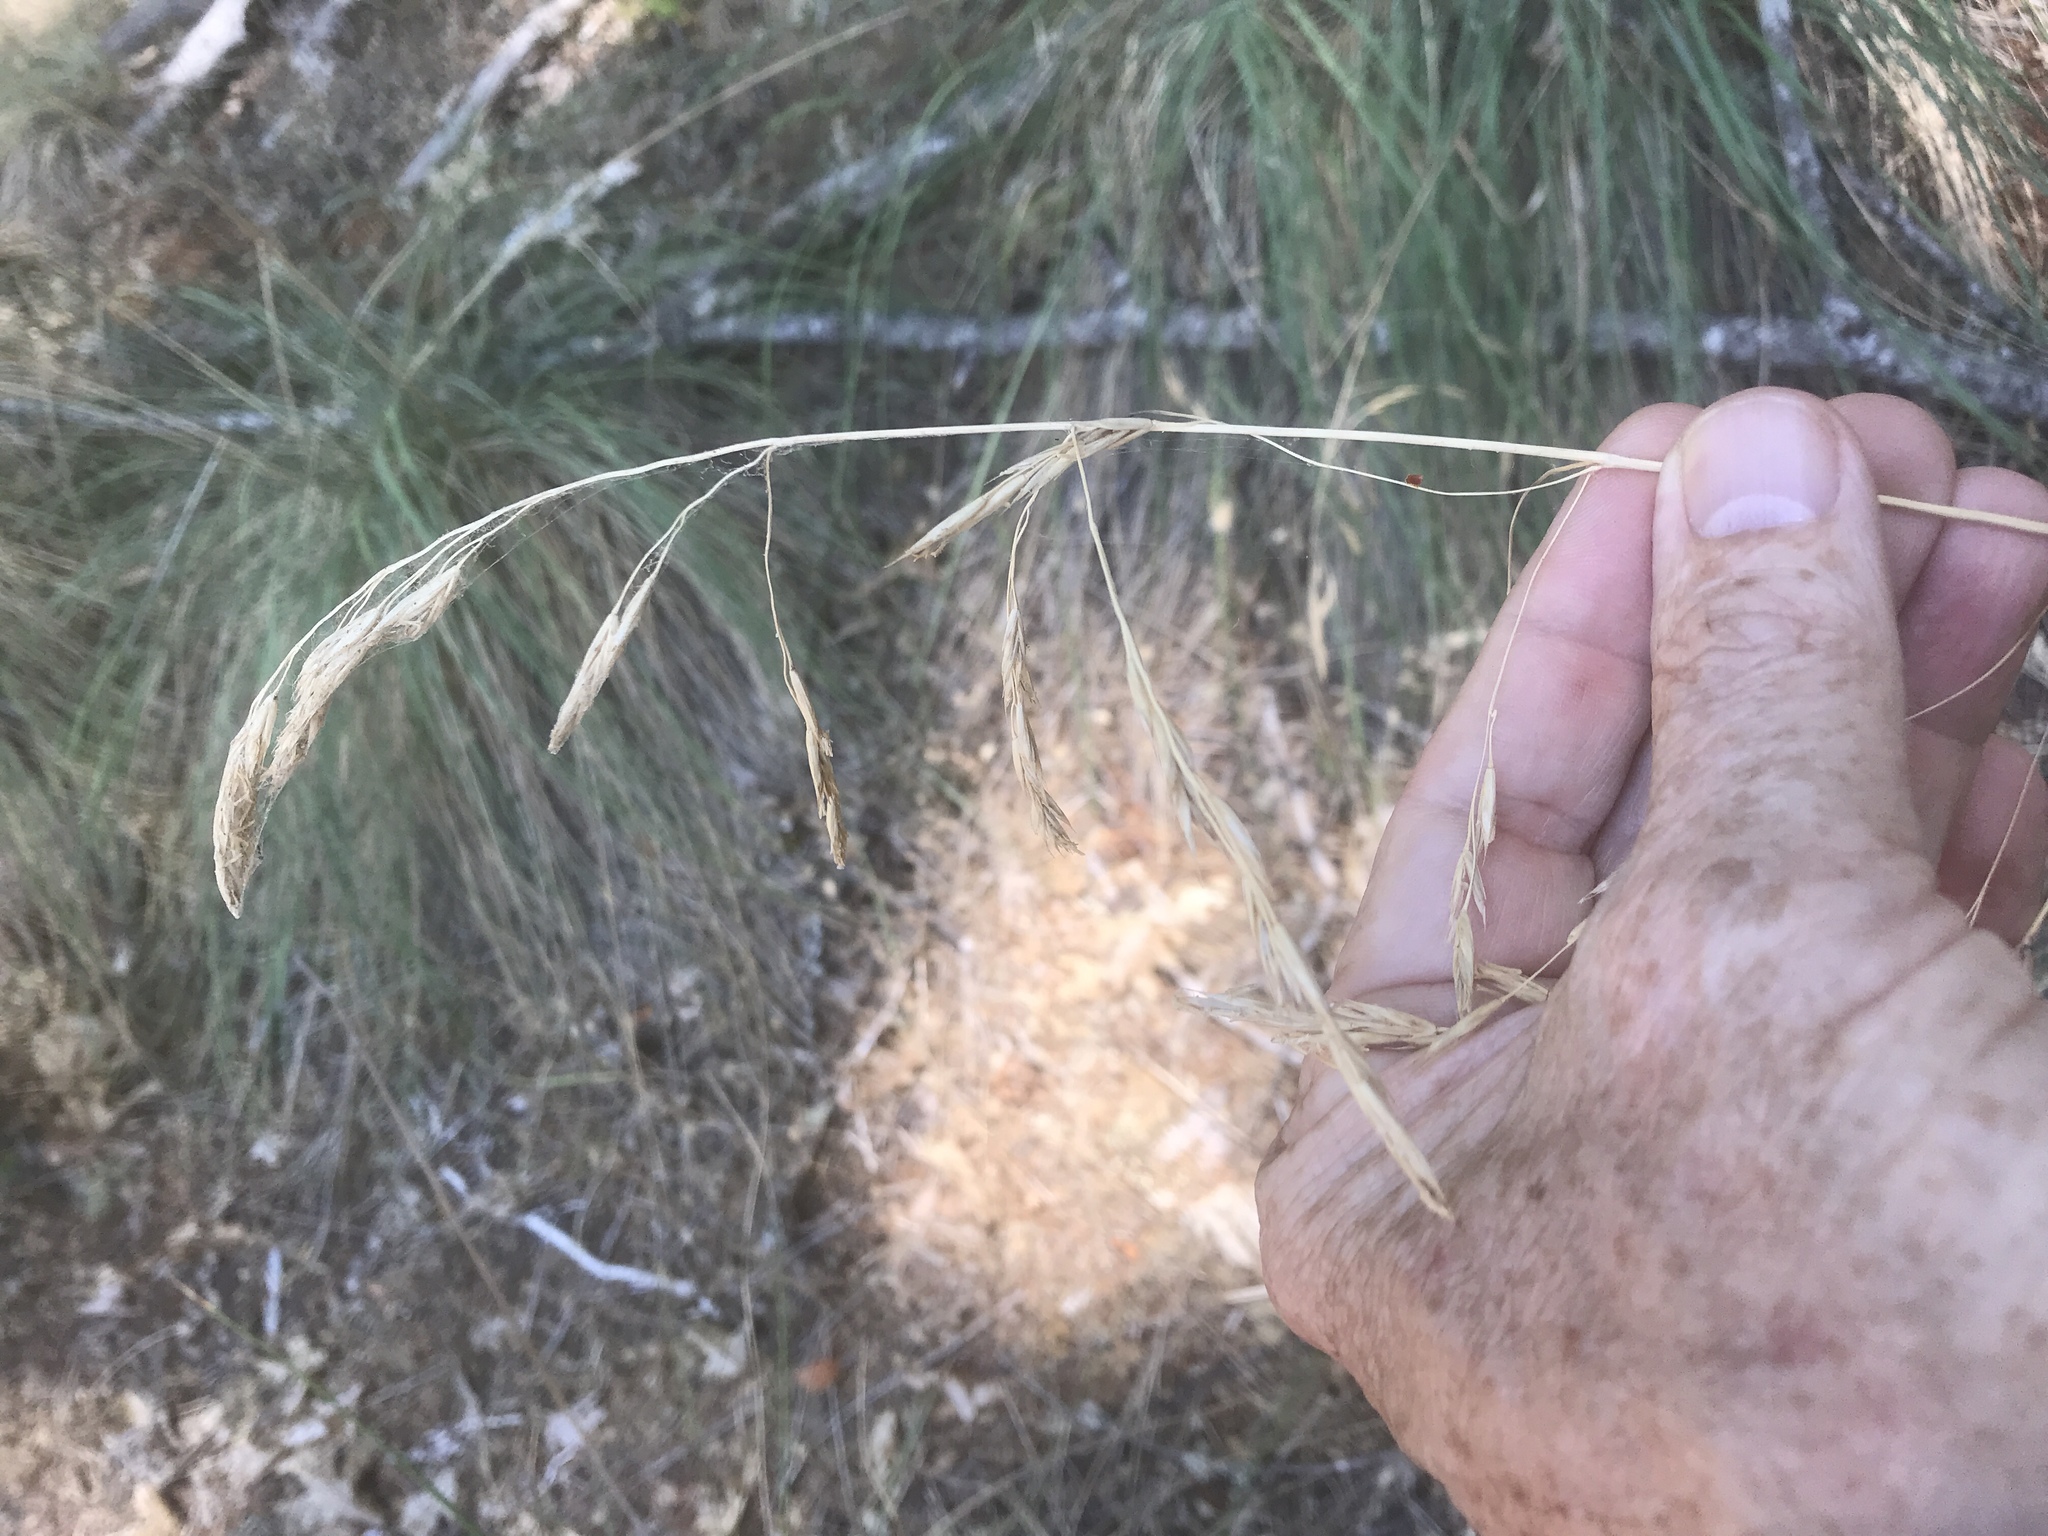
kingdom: Plantae
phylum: Tracheophyta
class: Liliopsida
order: Poales
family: Poaceae
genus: Festuca
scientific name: Festuca californica
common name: California fescue
